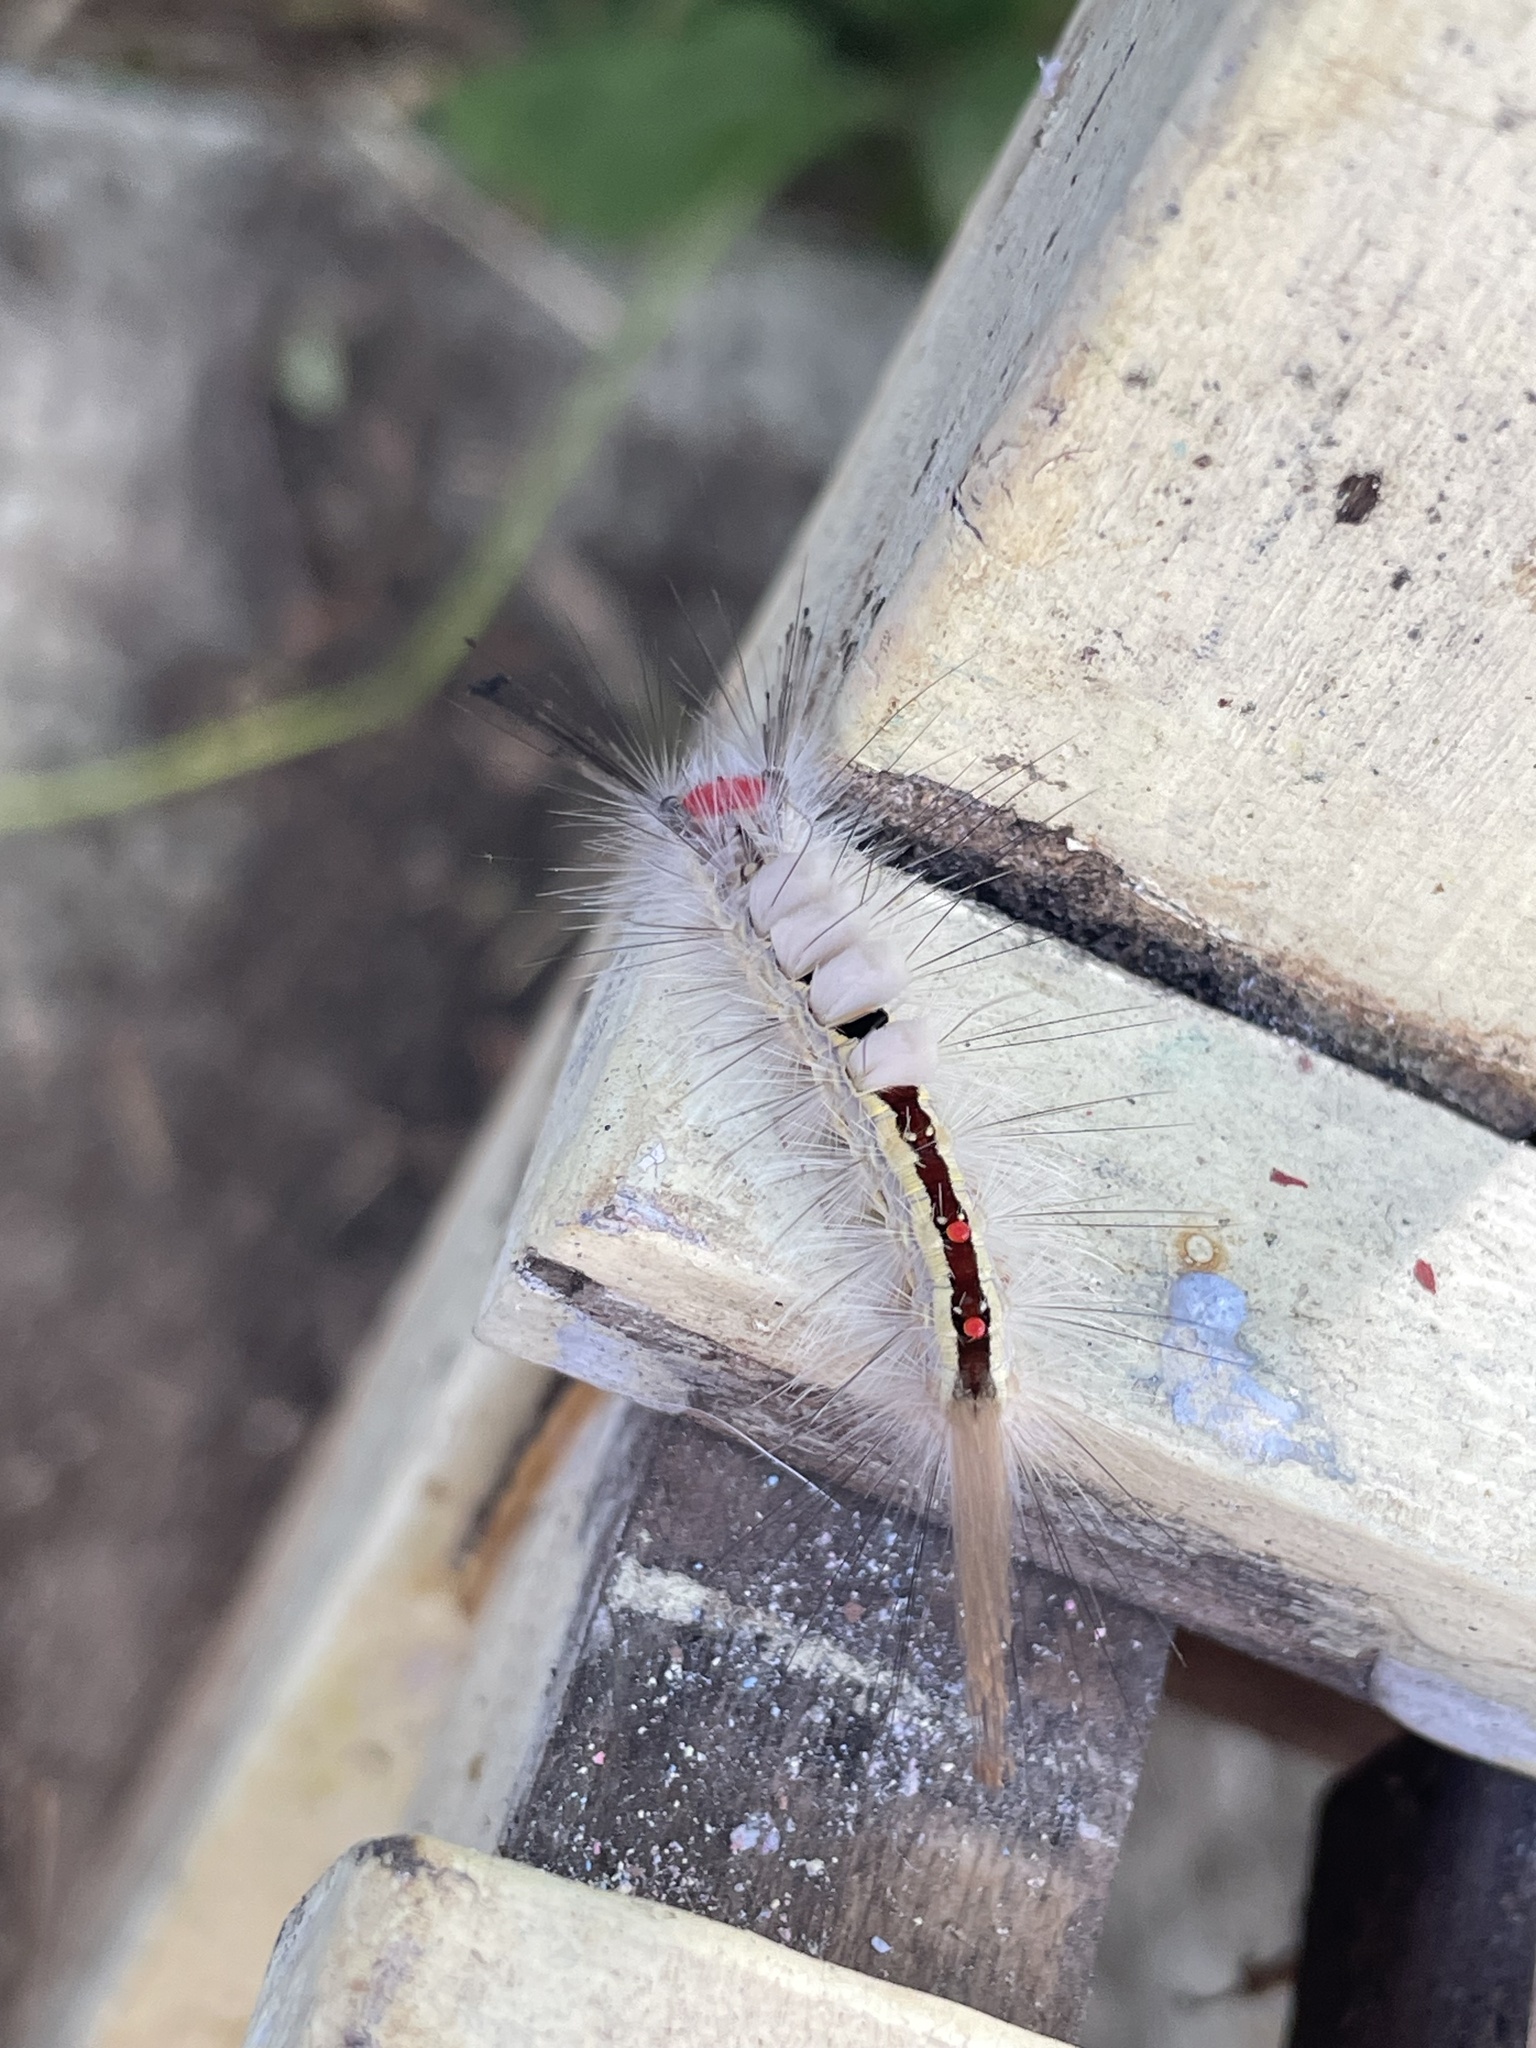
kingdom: Animalia
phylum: Arthropoda
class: Insecta
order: Lepidoptera
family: Erebidae
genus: Orgyia
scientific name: Orgyia leucostigma
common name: White-marked tussock moth
